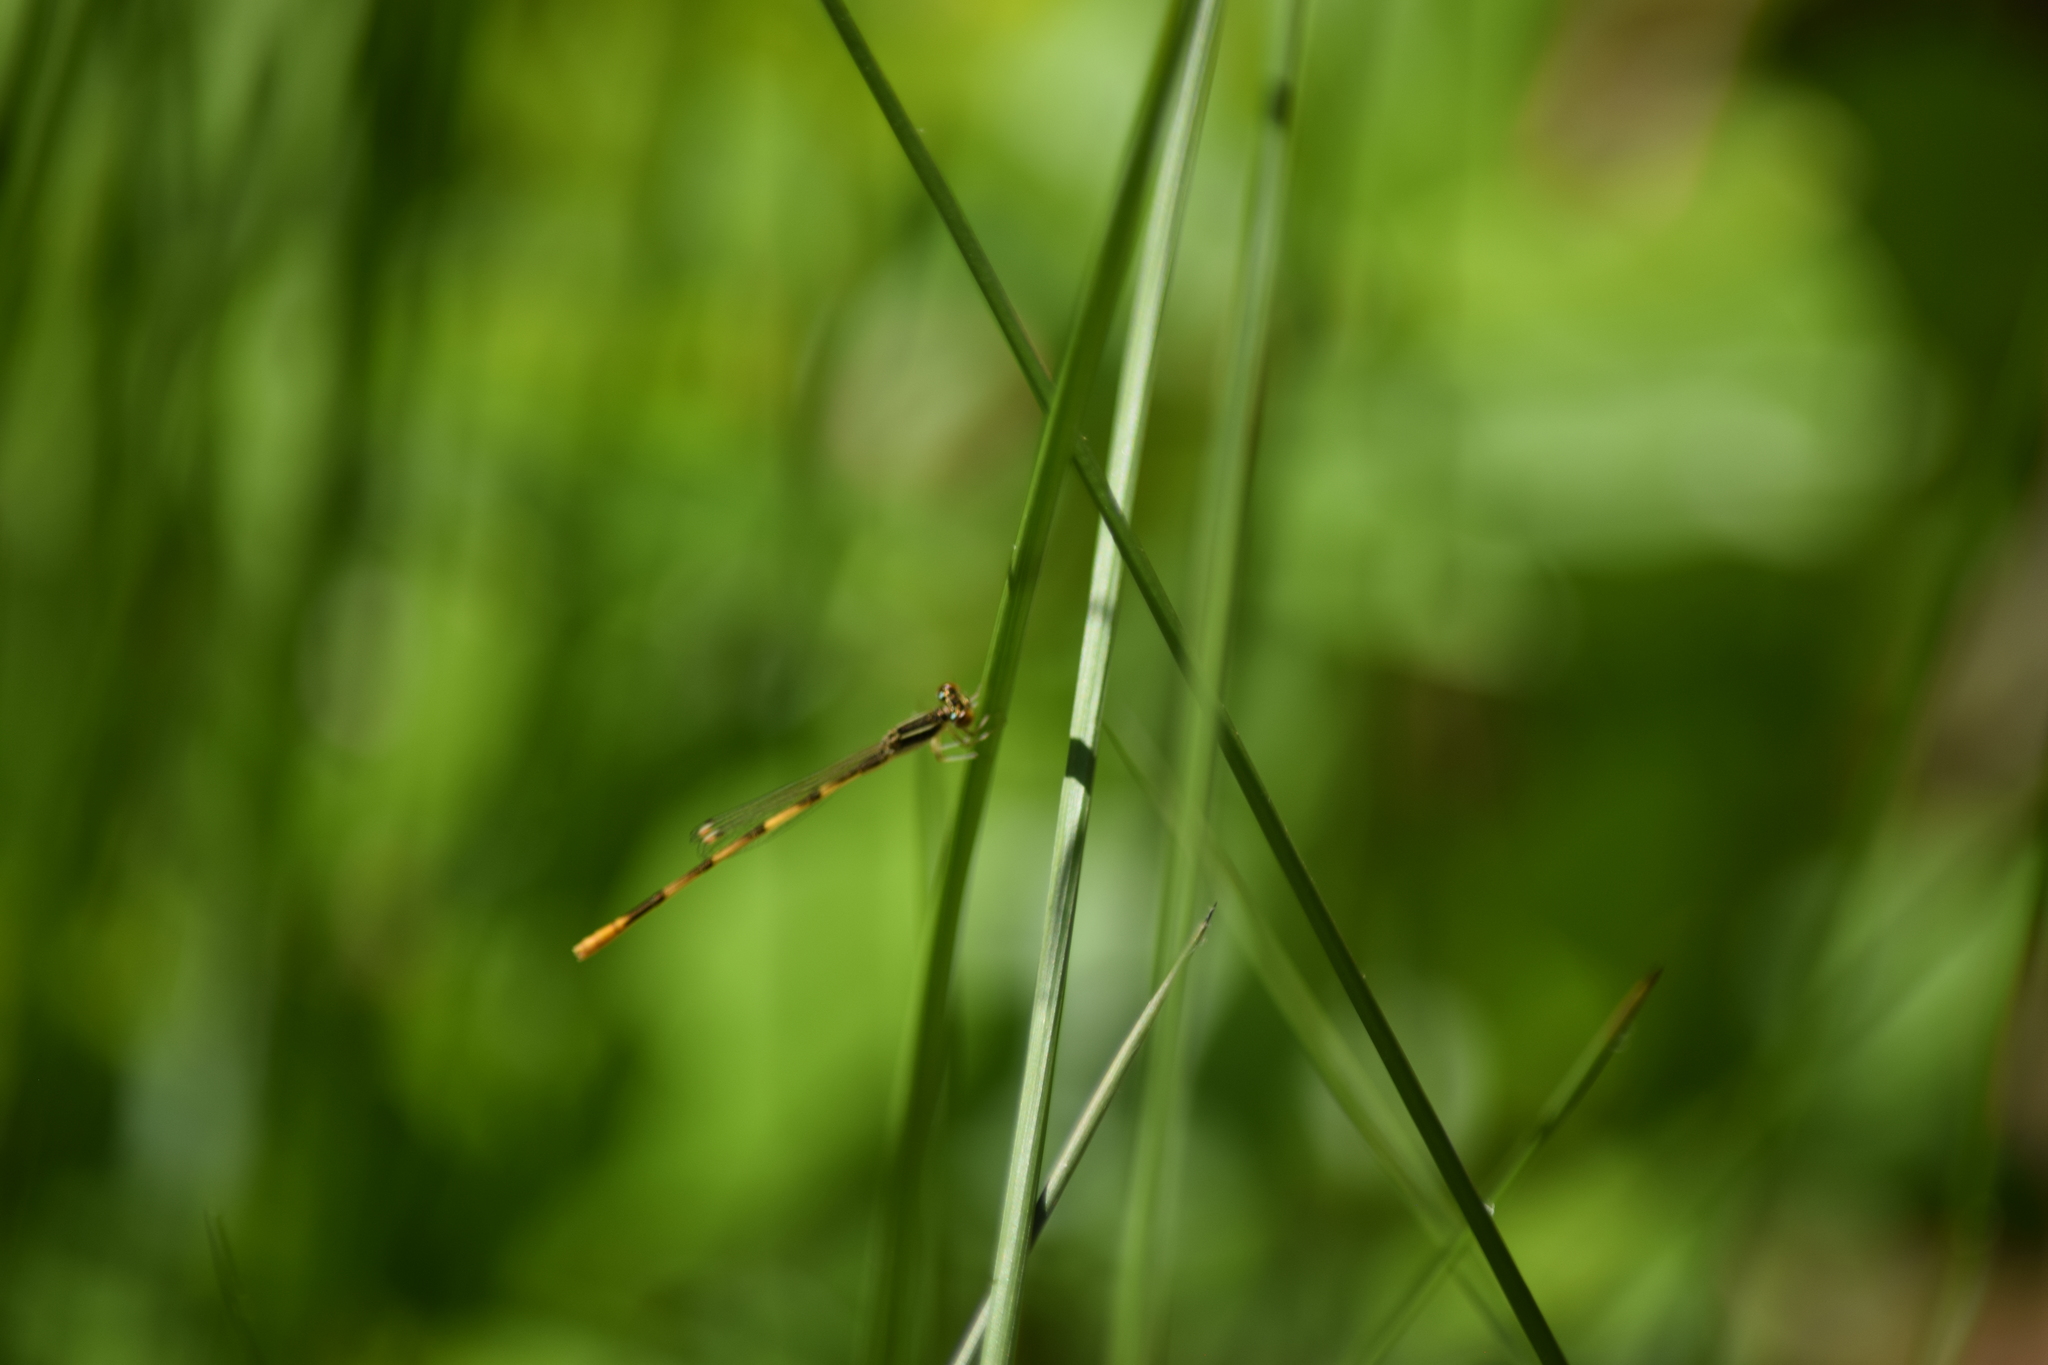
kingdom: Animalia
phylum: Arthropoda
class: Insecta
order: Odonata
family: Coenagrionidae
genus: Ischnura
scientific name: Ischnura hastata
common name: Citrine forktail
